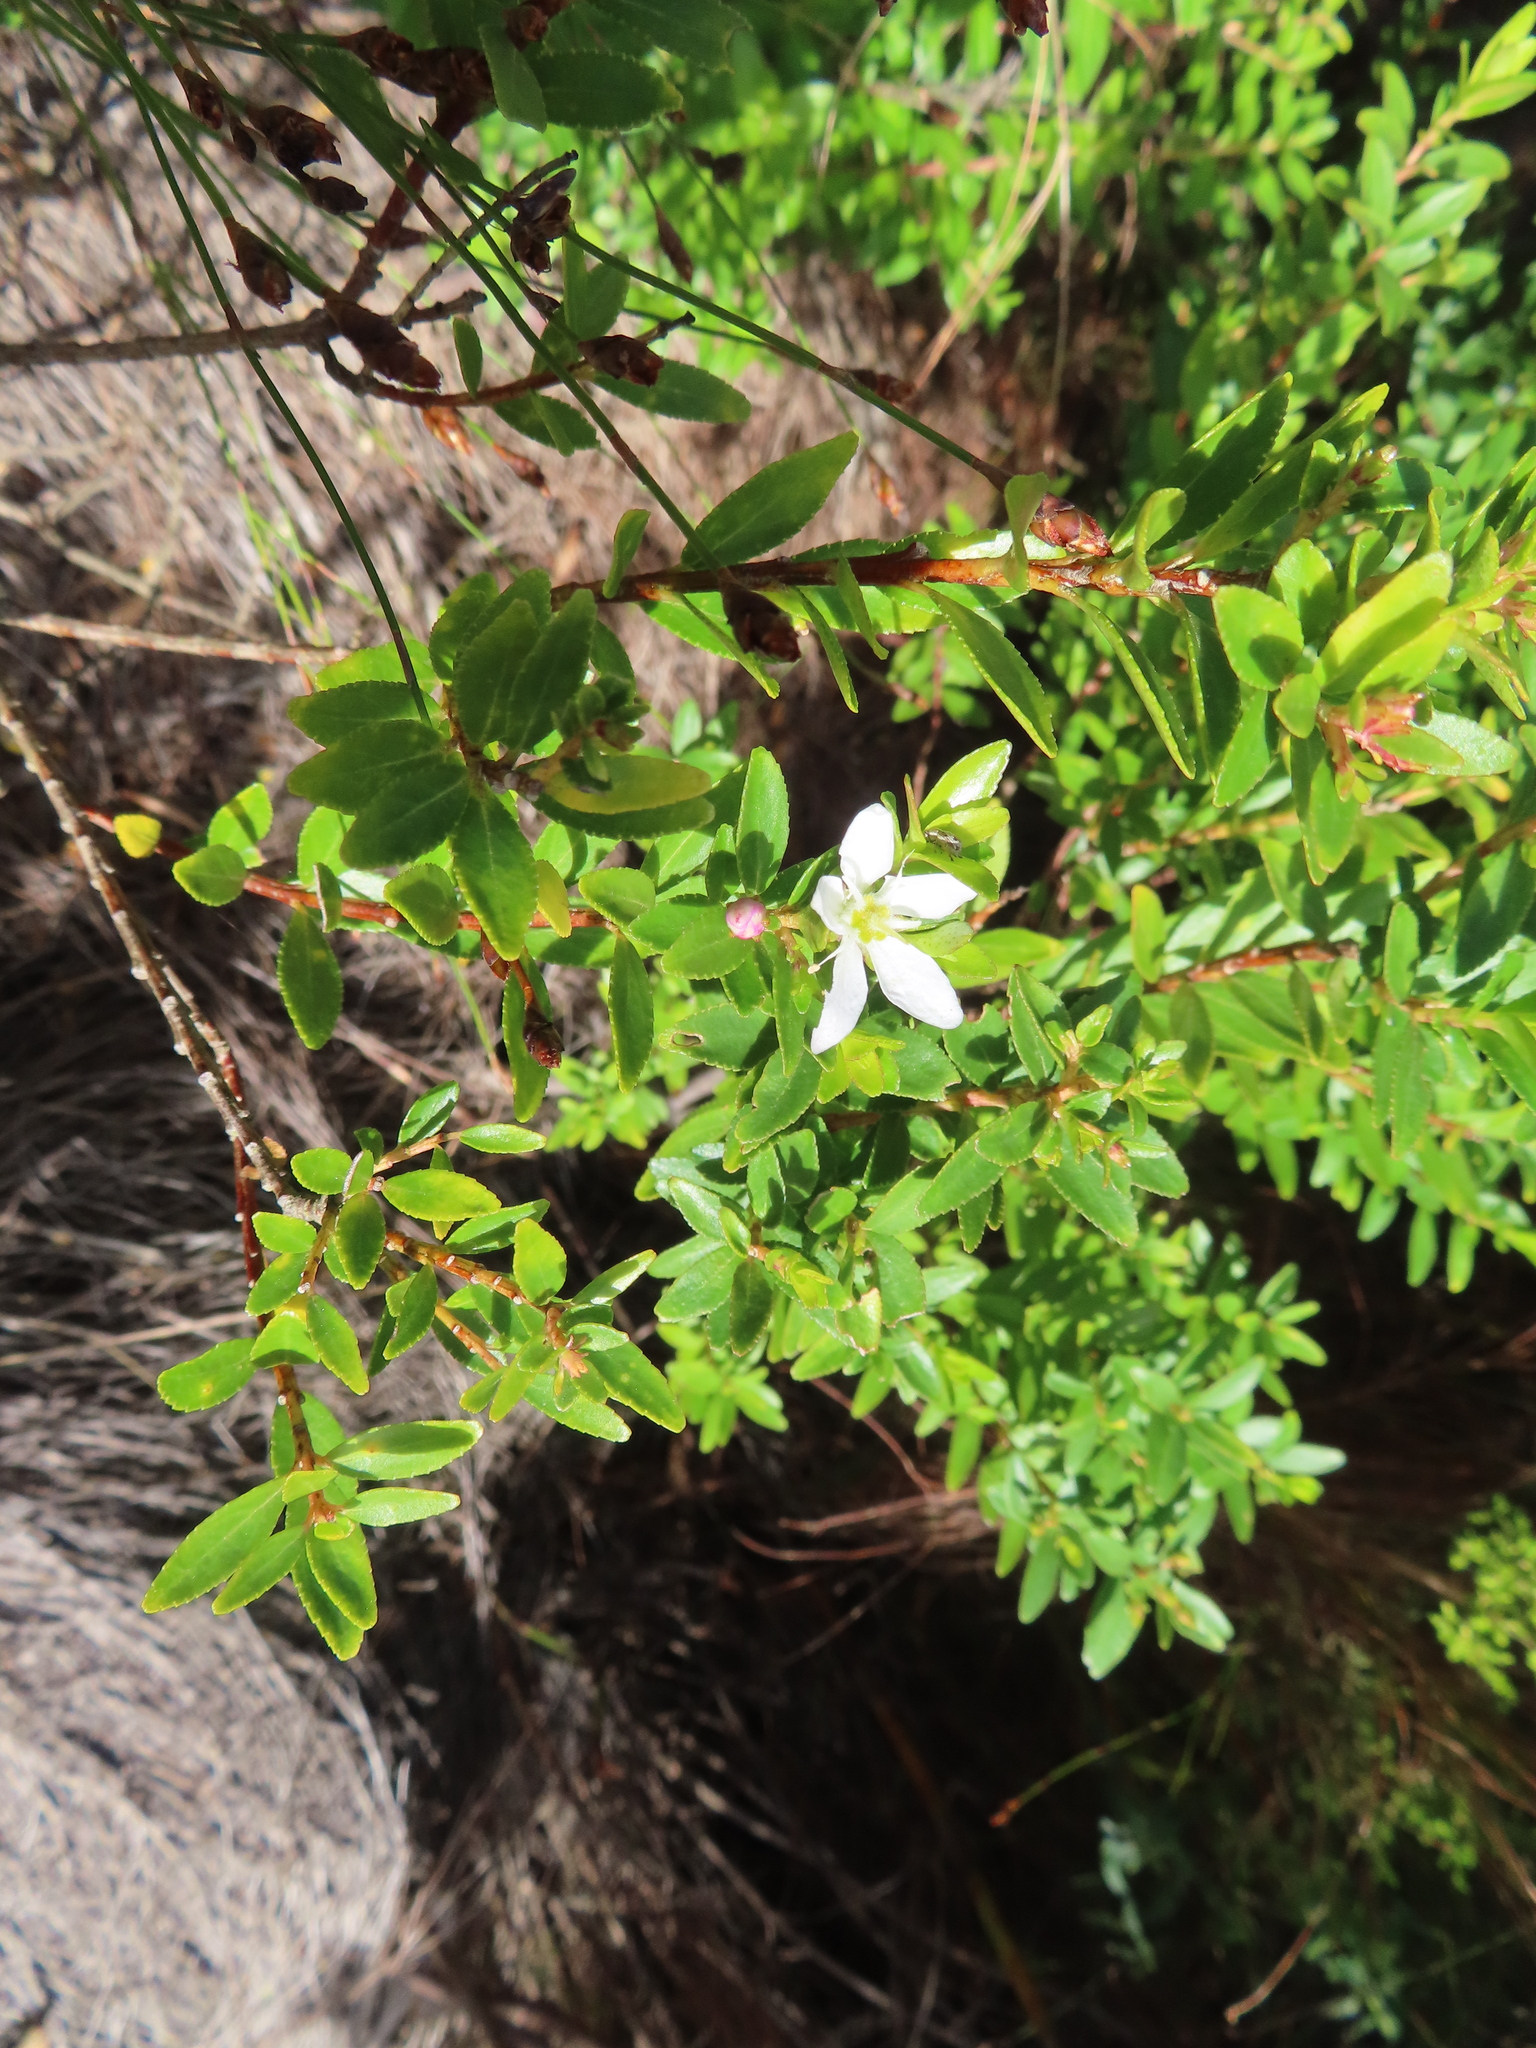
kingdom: Plantae
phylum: Tracheophyta
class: Magnoliopsida
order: Sapindales
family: Rutaceae
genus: Agathosma
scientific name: Agathosma crenulata
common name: Oval buchu
